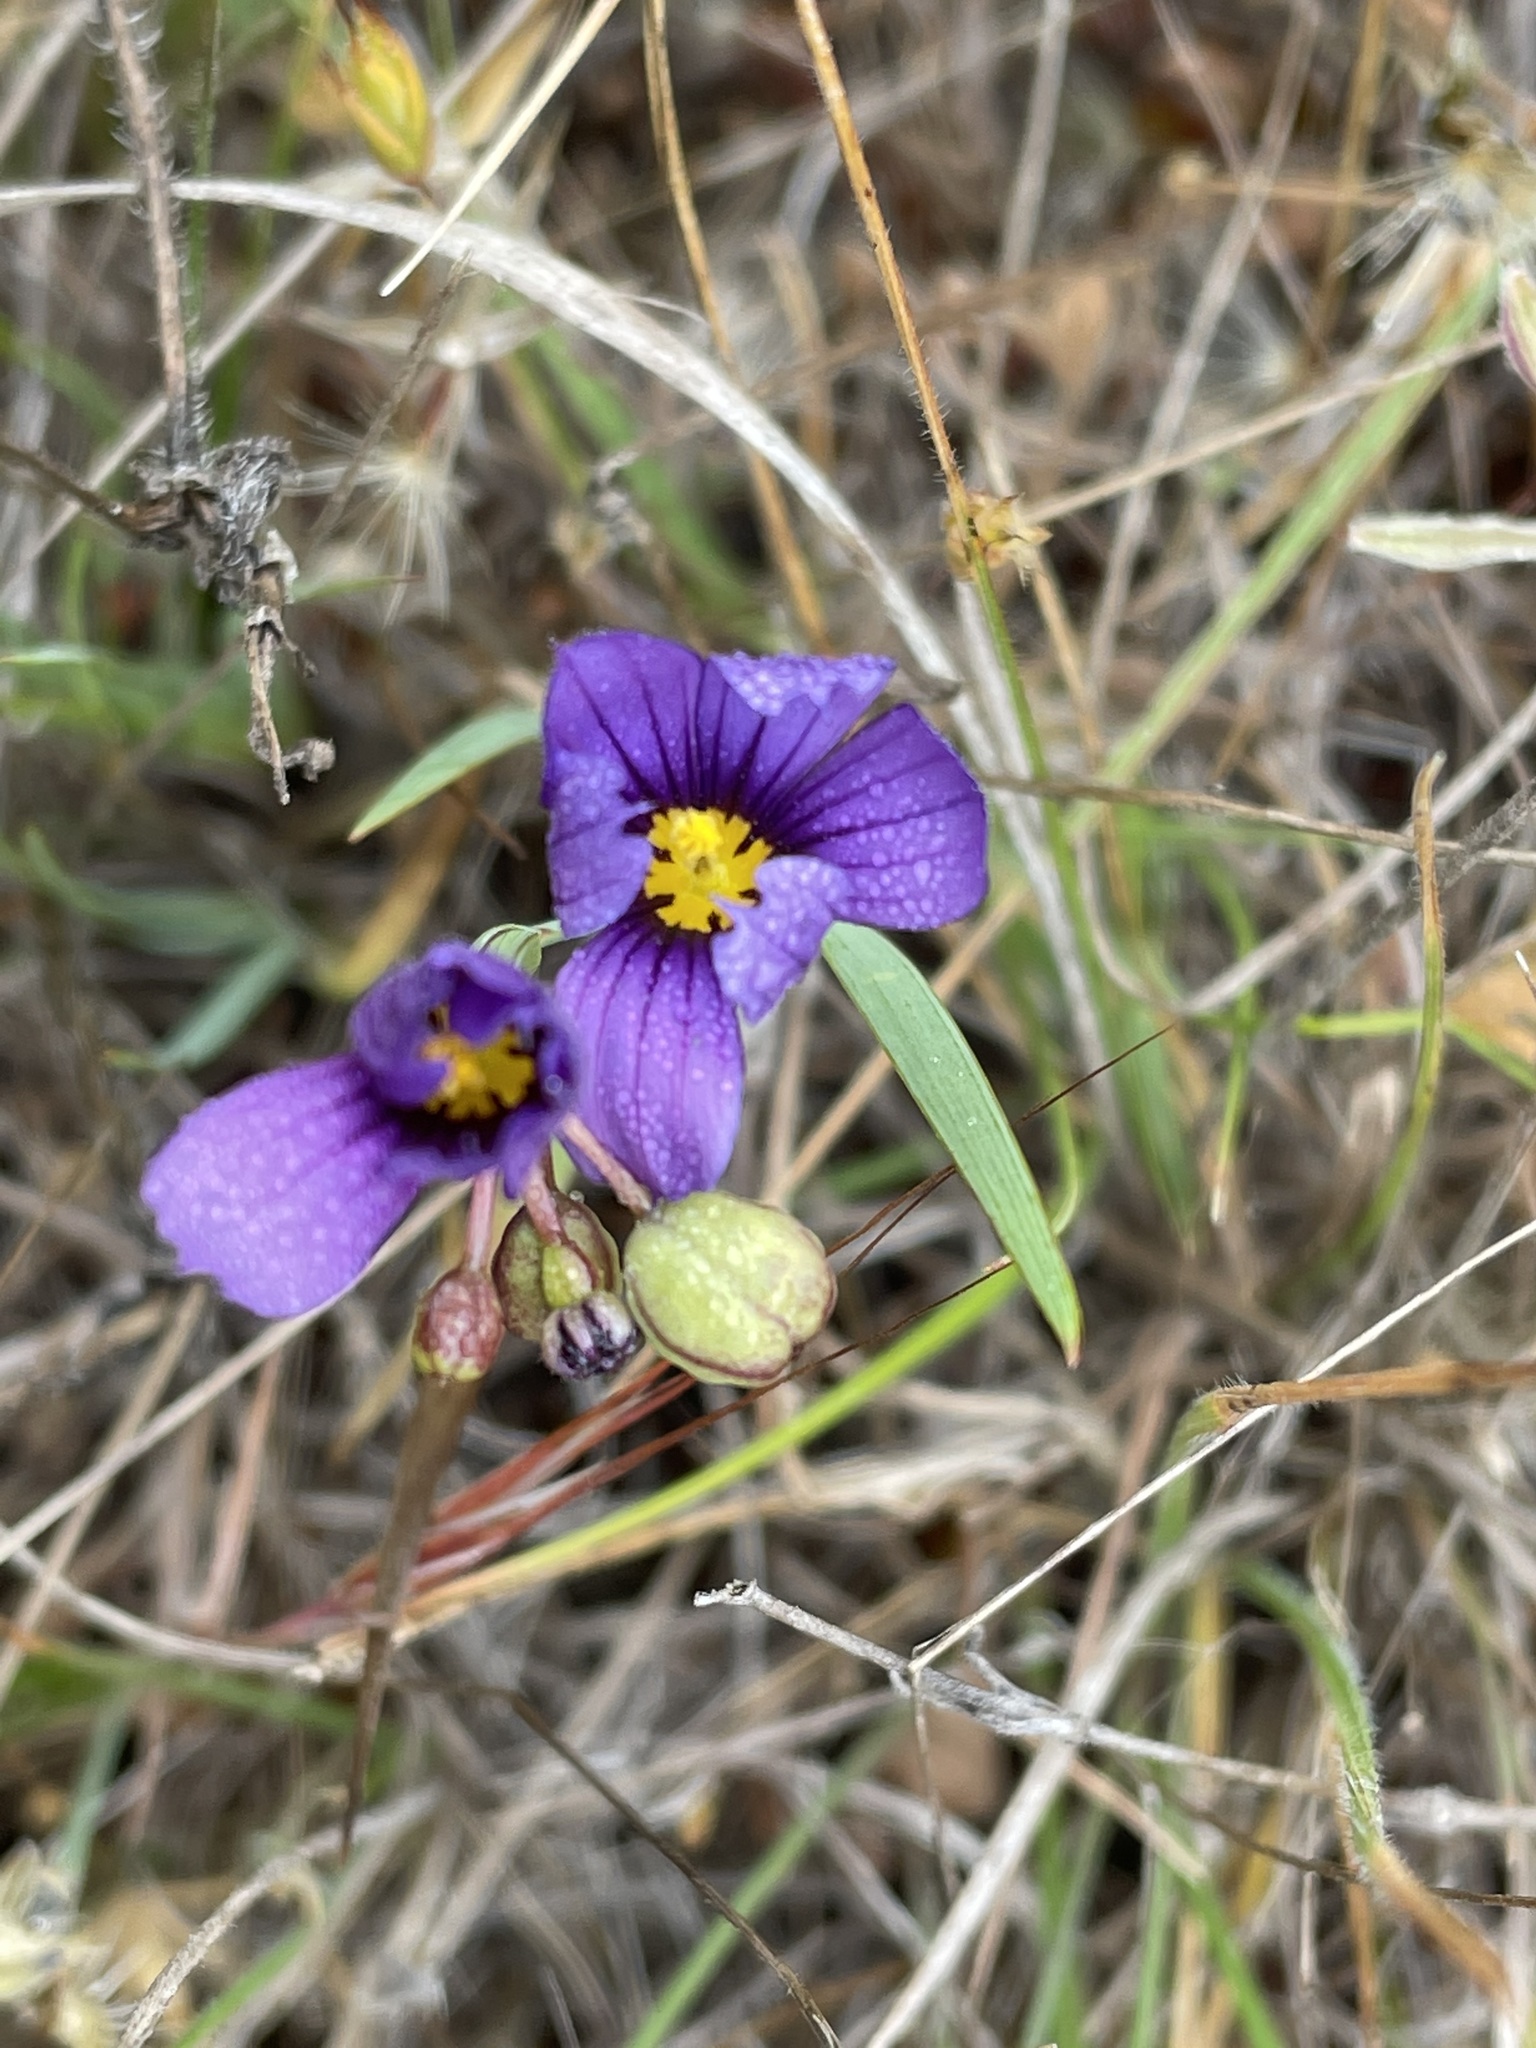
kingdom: Plantae
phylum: Tracheophyta
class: Liliopsida
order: Asparagales
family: Iridaceae
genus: Sisyrinchium
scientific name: Sisyrinchium bellum
